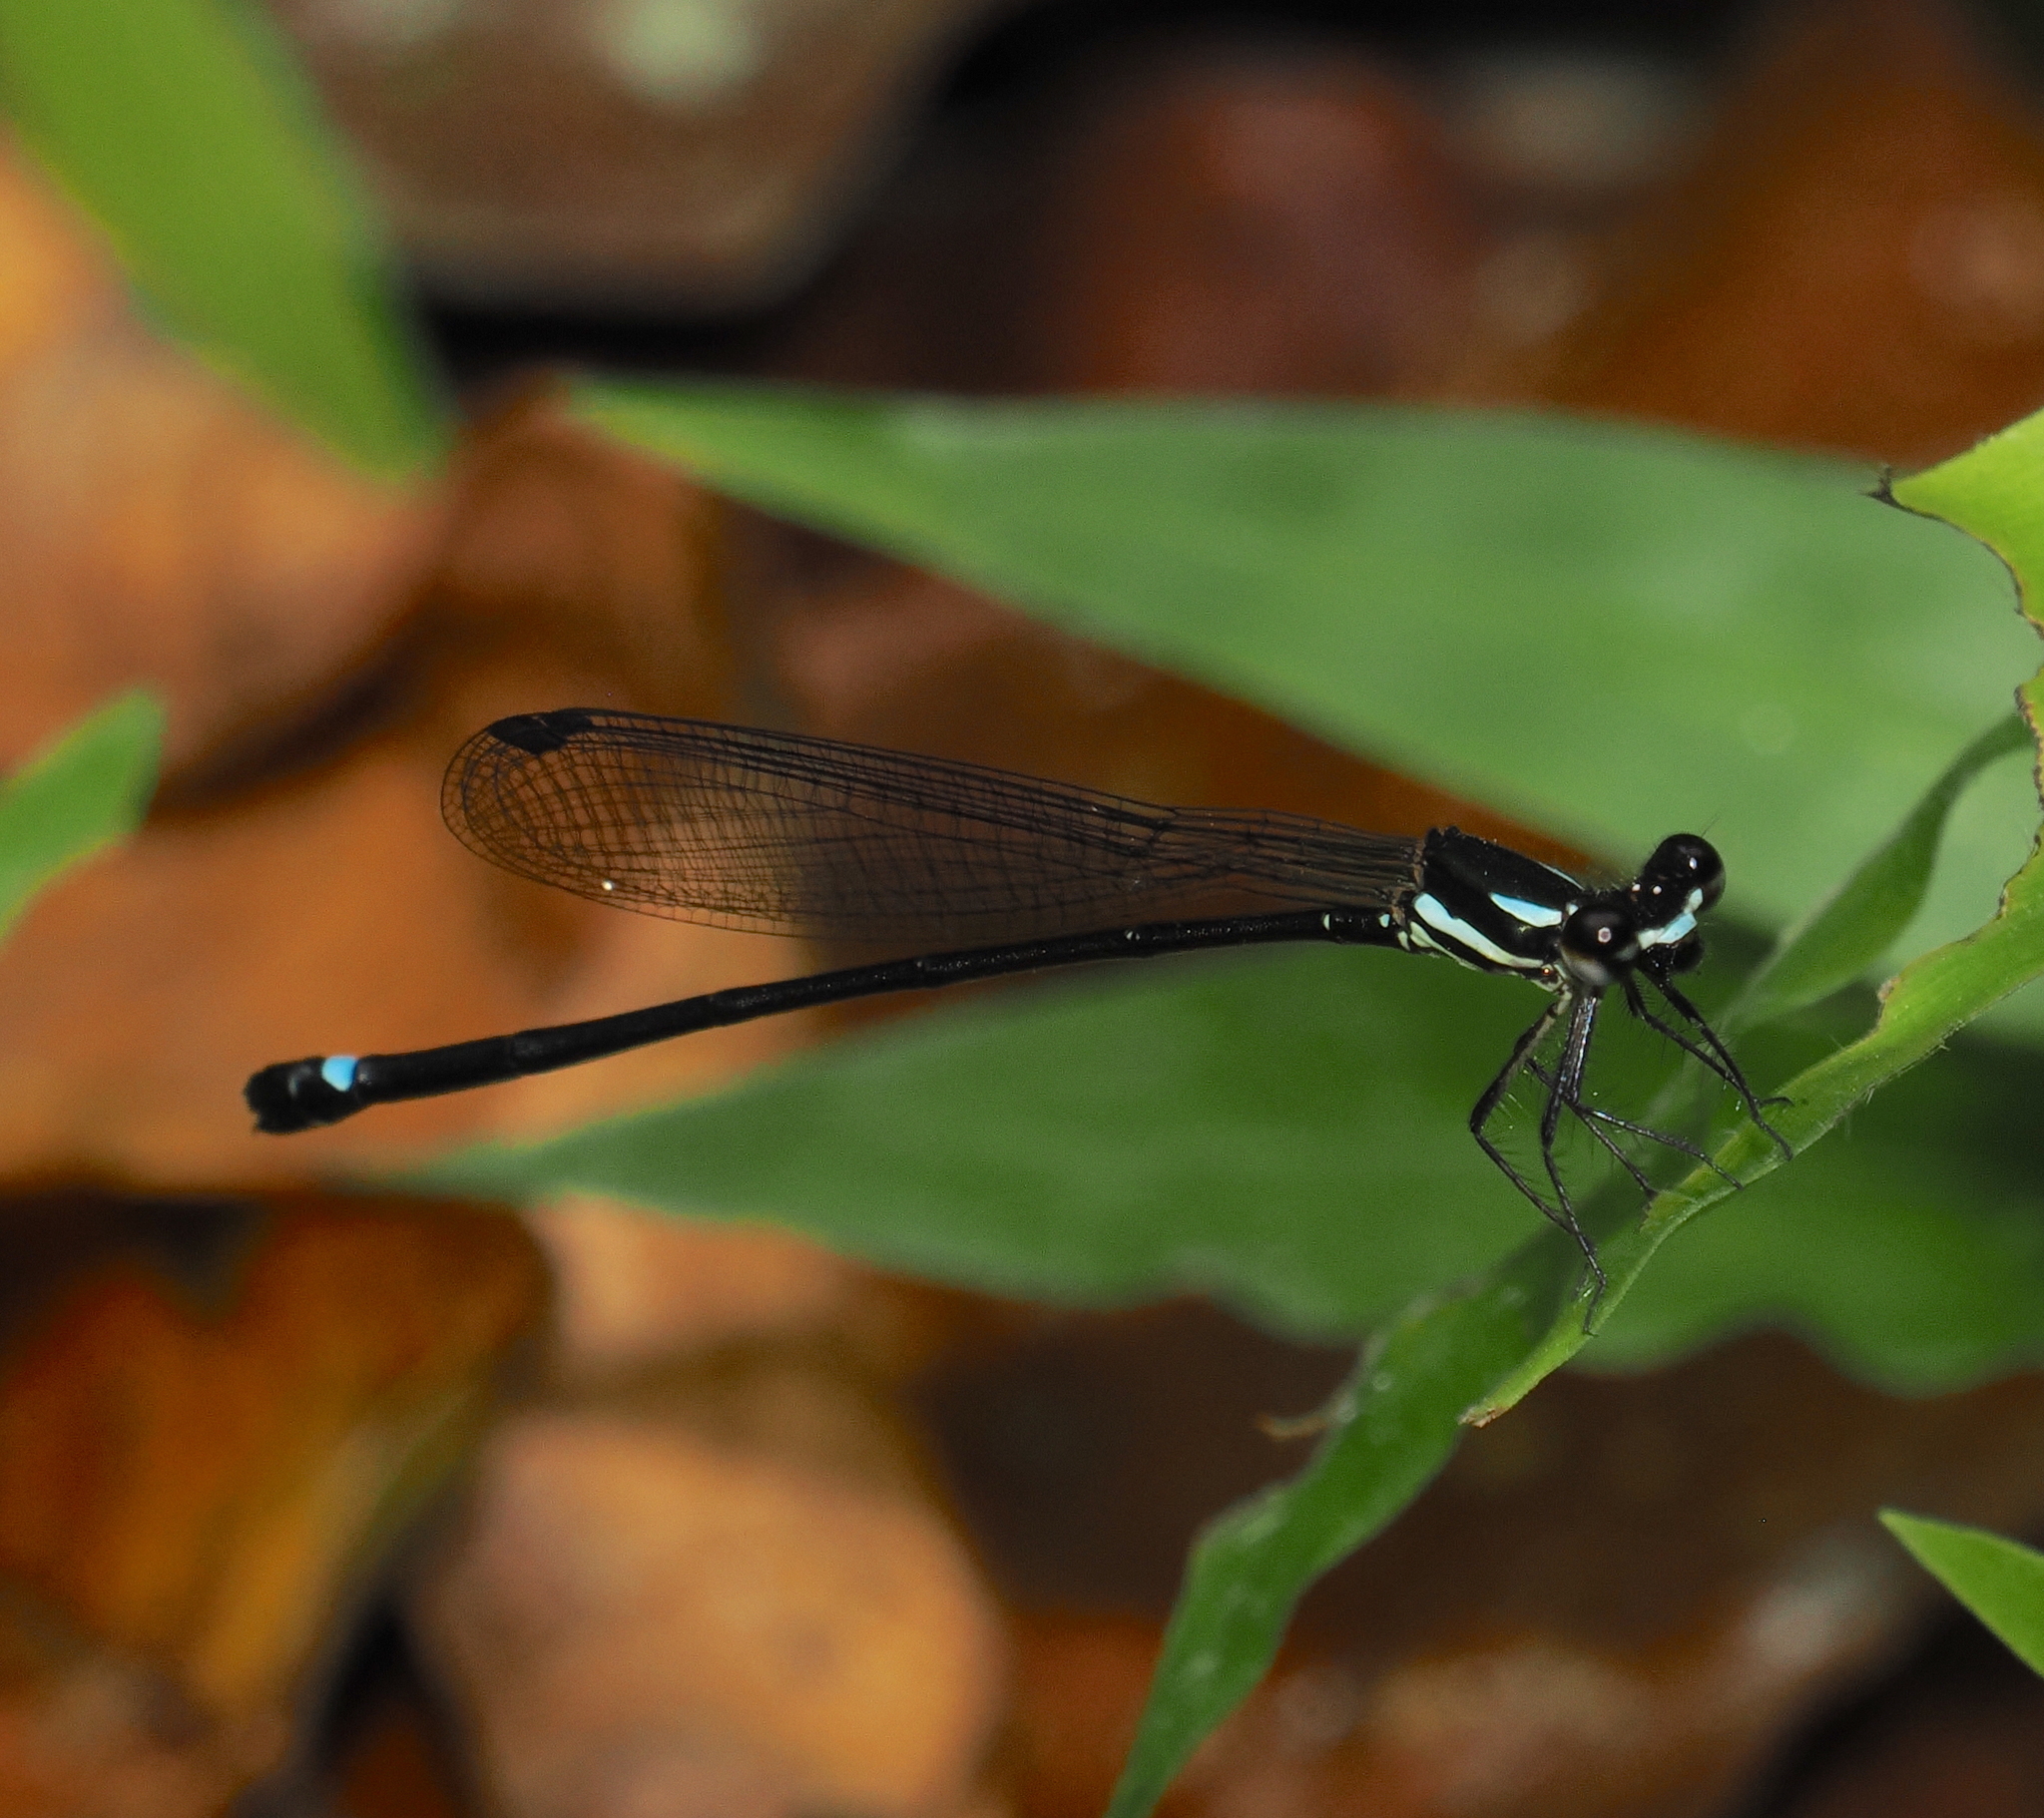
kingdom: Animalia
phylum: Arthropoda
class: Insecta
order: Odonata
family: Platycnemididae
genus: Nososticta
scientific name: Nososticta insignis
